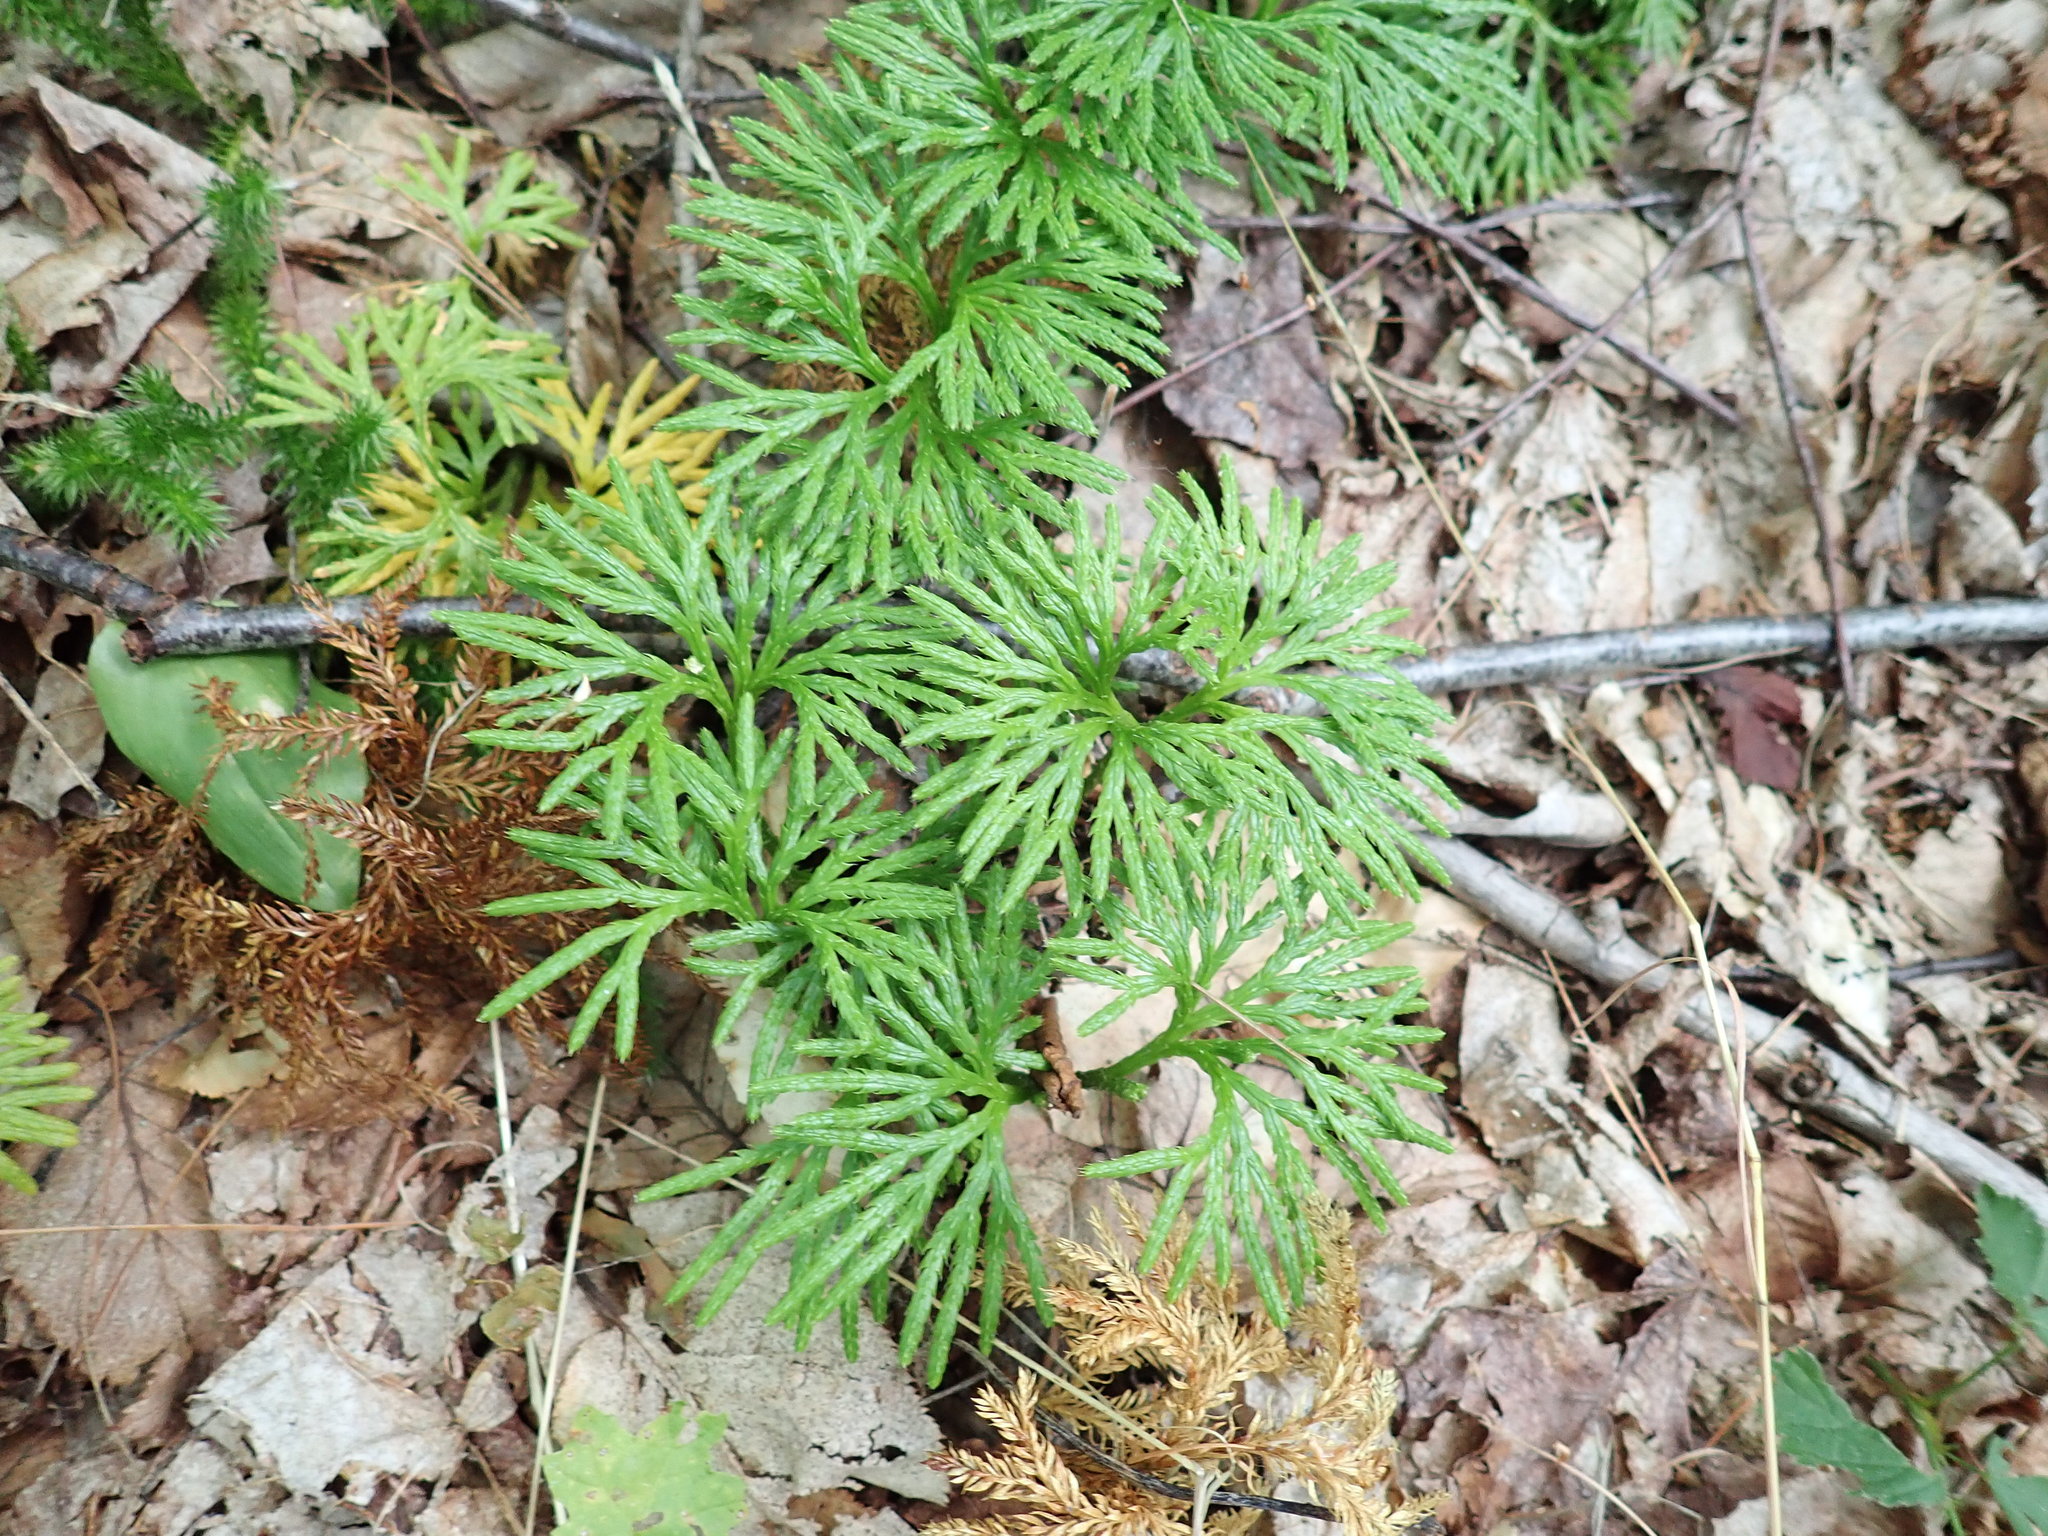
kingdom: Plantae
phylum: Tracheophyta
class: Lycopodiopsida
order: Lycopodiales
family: Lycopodiaceae
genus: Diphasiastrum
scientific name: Diphasiastrum digitatum
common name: Southern running-pine
